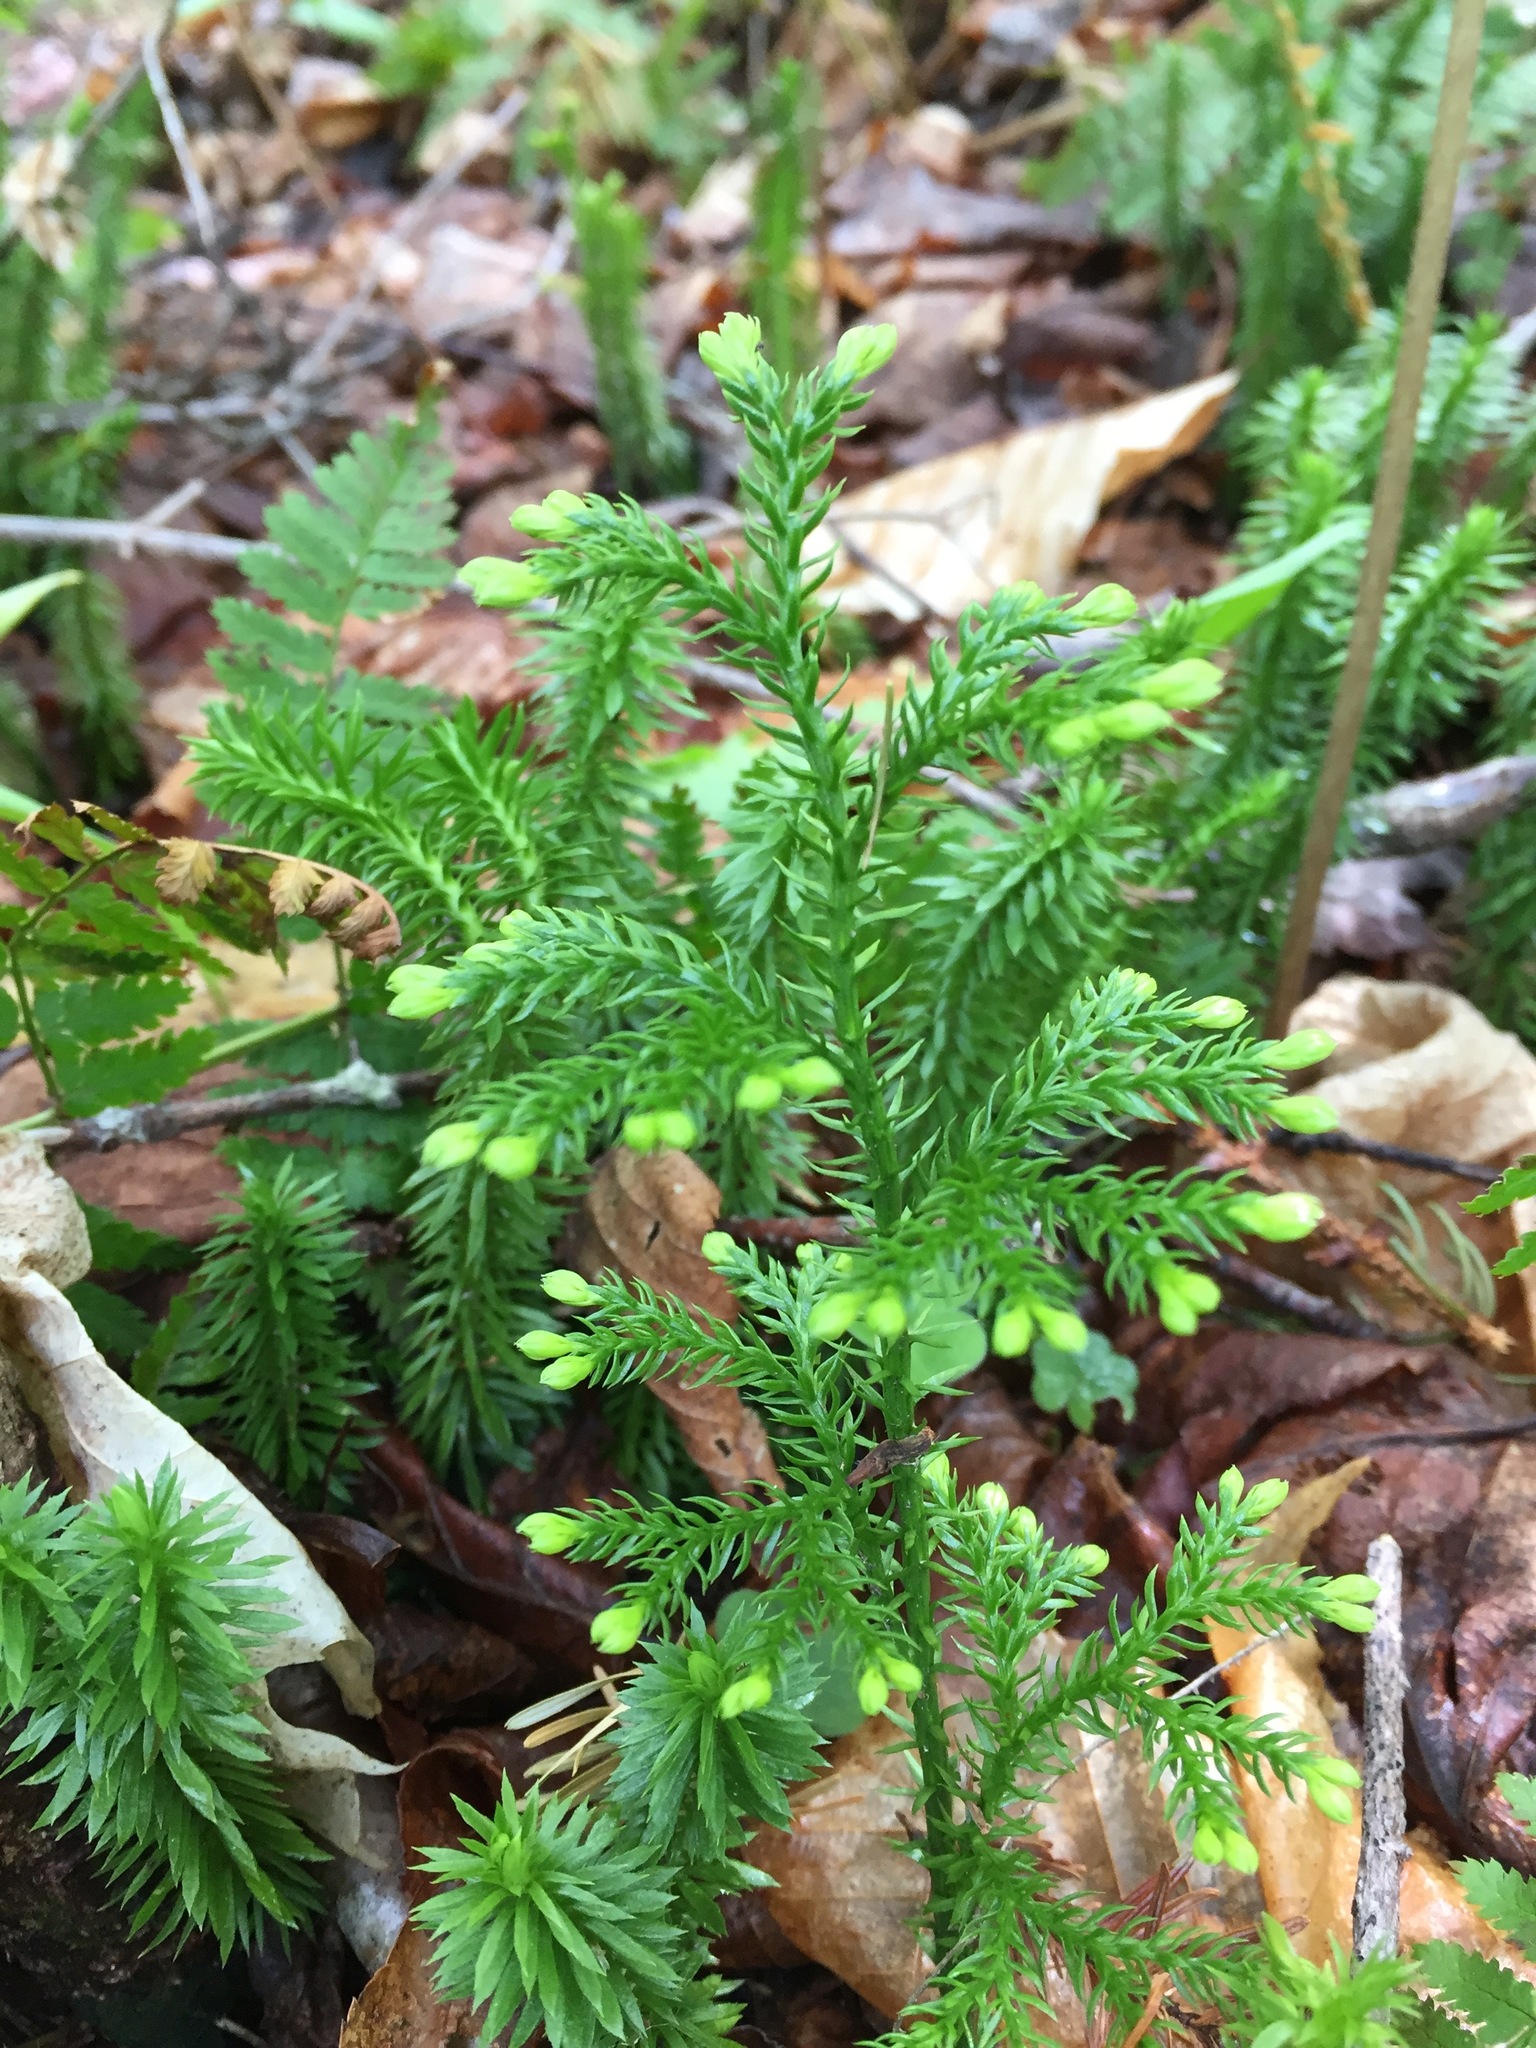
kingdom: Plantae
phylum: Tracheophyta
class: Lycopodiopsida
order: Lycopodiales
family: Lycopodiaceae
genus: Dendrolycopodium
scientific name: Dendrolycopodium dendroideum
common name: Northern tree-clubmoss
